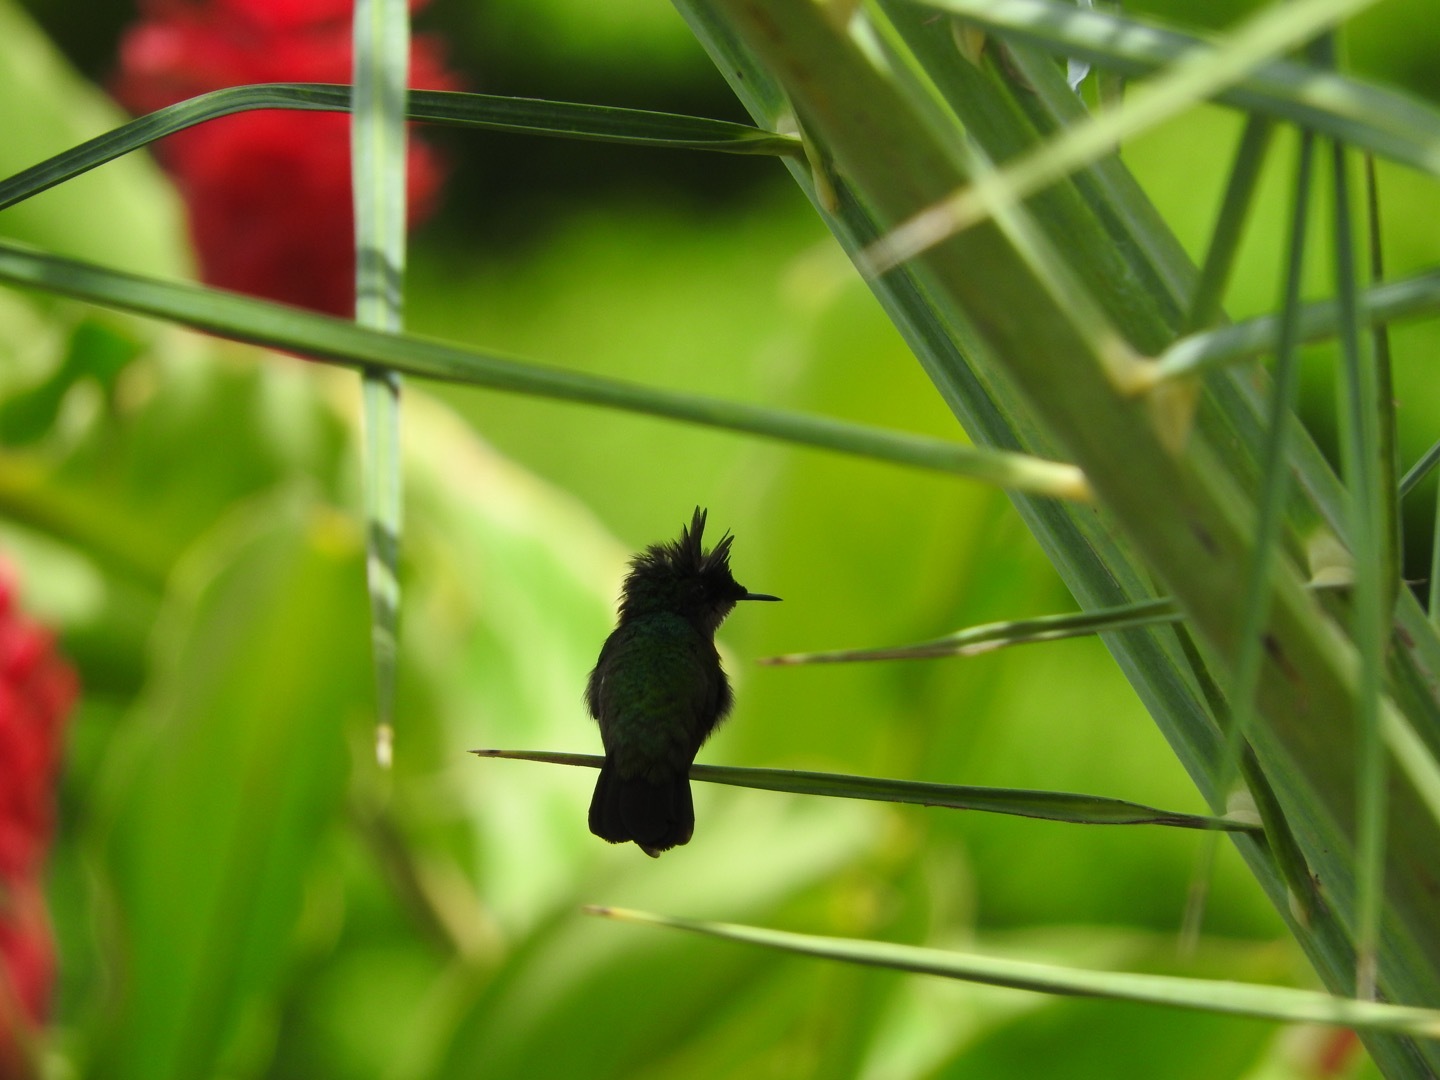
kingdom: Animalia
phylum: Chordata
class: Aves
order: Apodiformes
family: Trochilidae
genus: Orthorhyncus
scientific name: Orthorhyncus cristatus
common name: Antillean crested hummingbird
